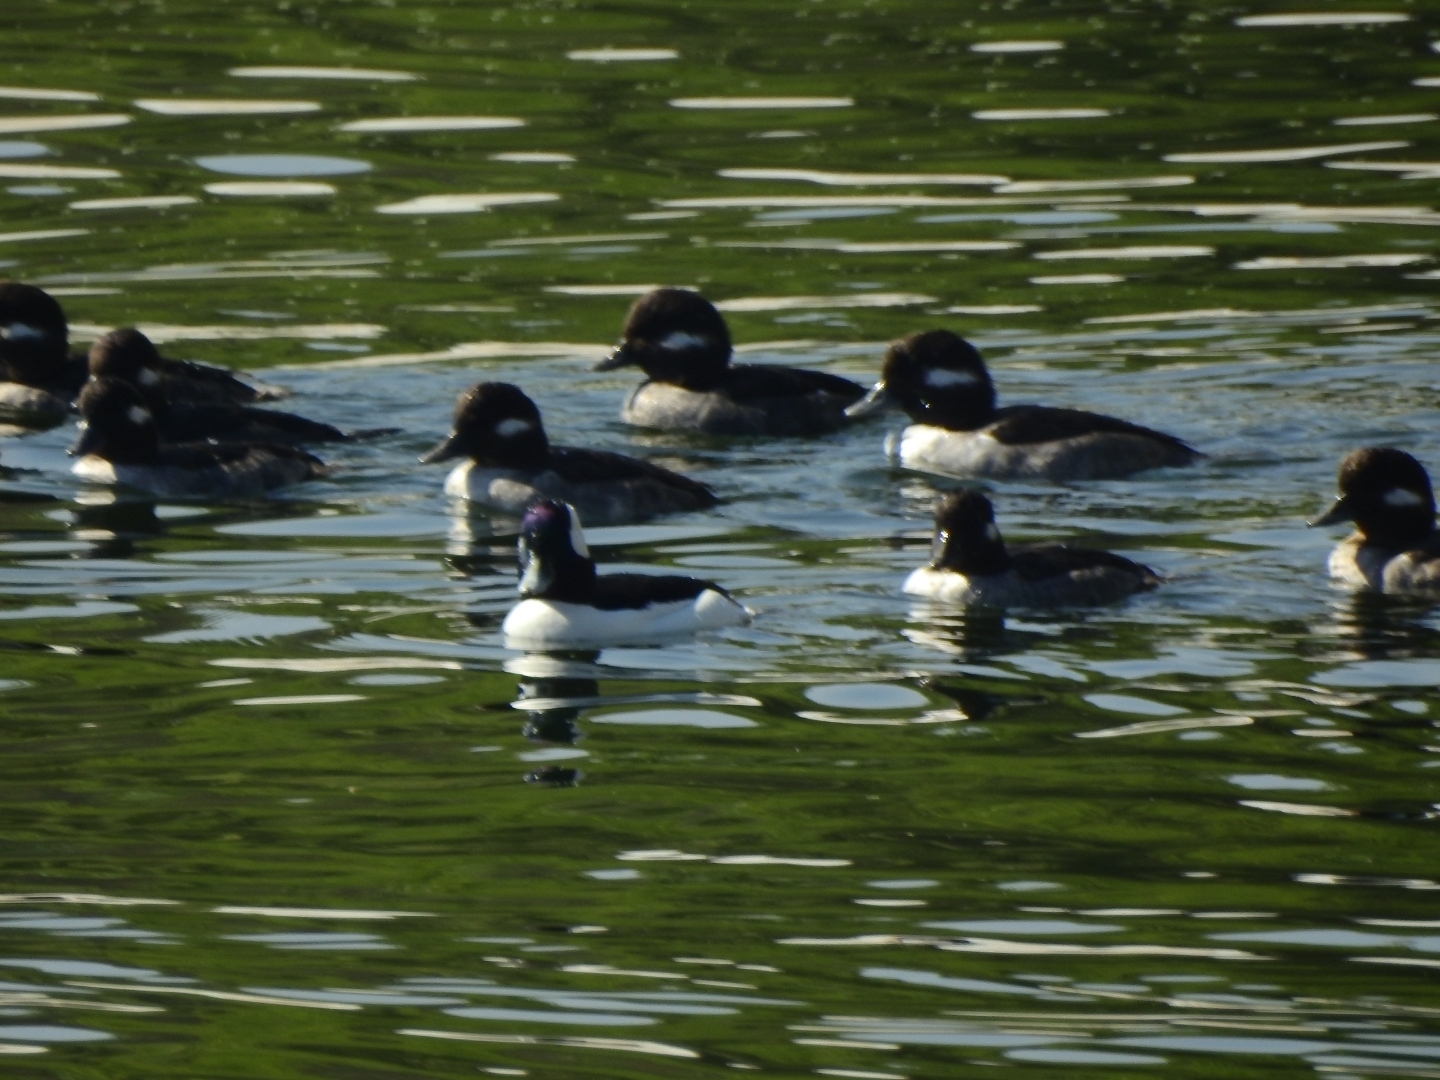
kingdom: Animalia
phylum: Chordata
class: Aves
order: Anseriformes
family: Anatidae
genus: Bucephala
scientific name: Bucephala albeola
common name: Bufflehead
